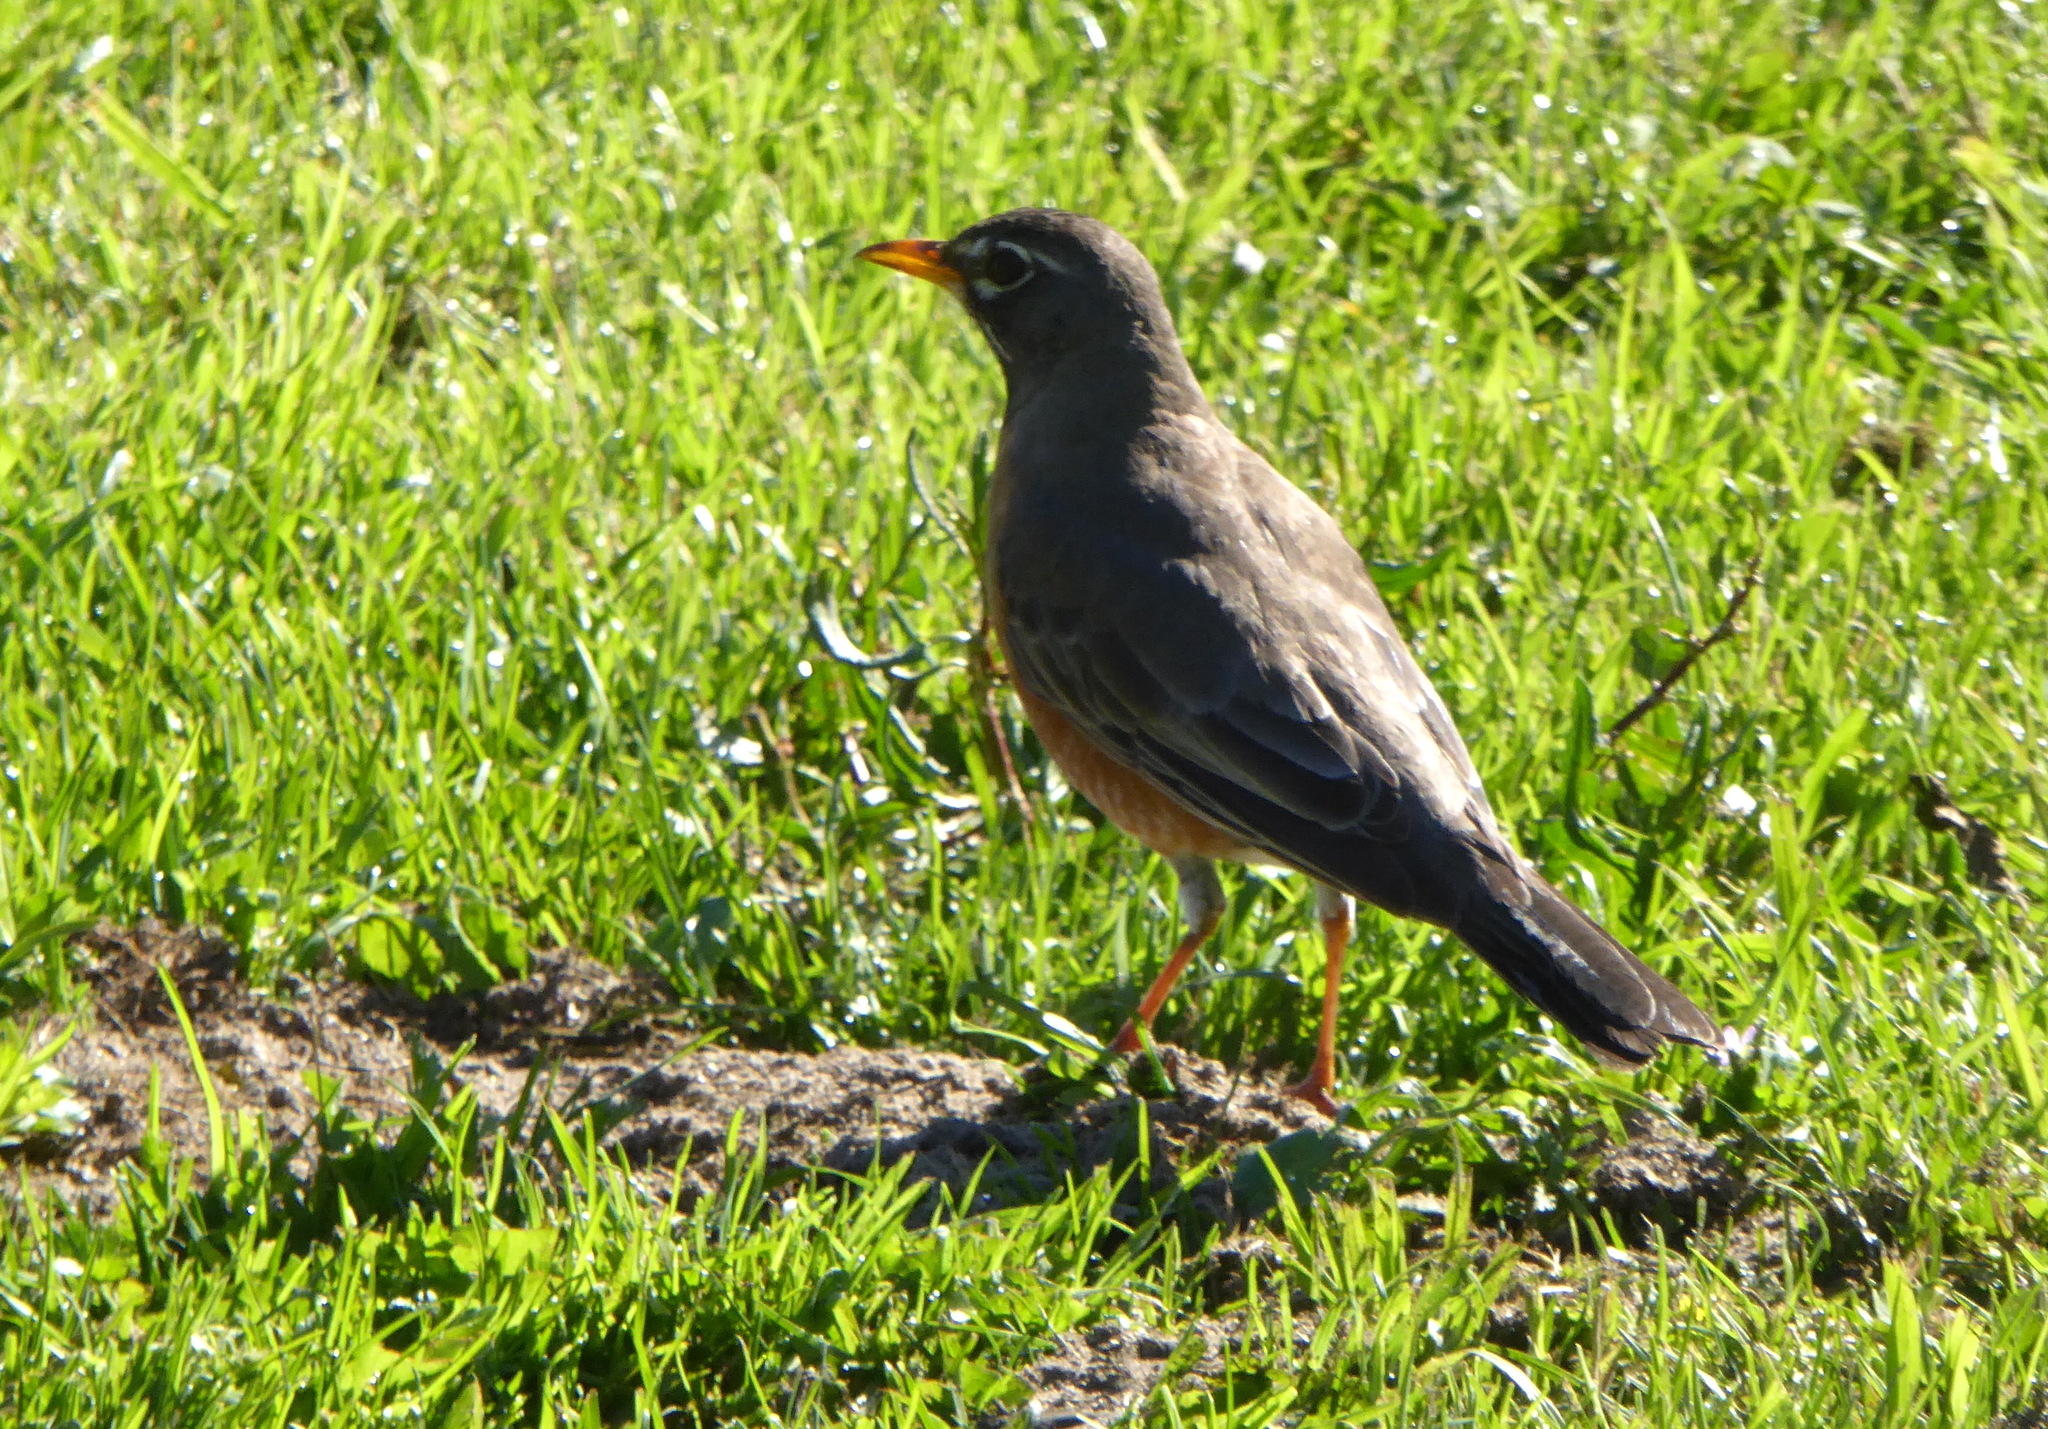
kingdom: Animalia
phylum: Chordata
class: Aves
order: Passeriformes
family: Turdidae
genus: Turdus
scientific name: Turdus migratorius
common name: American robin
